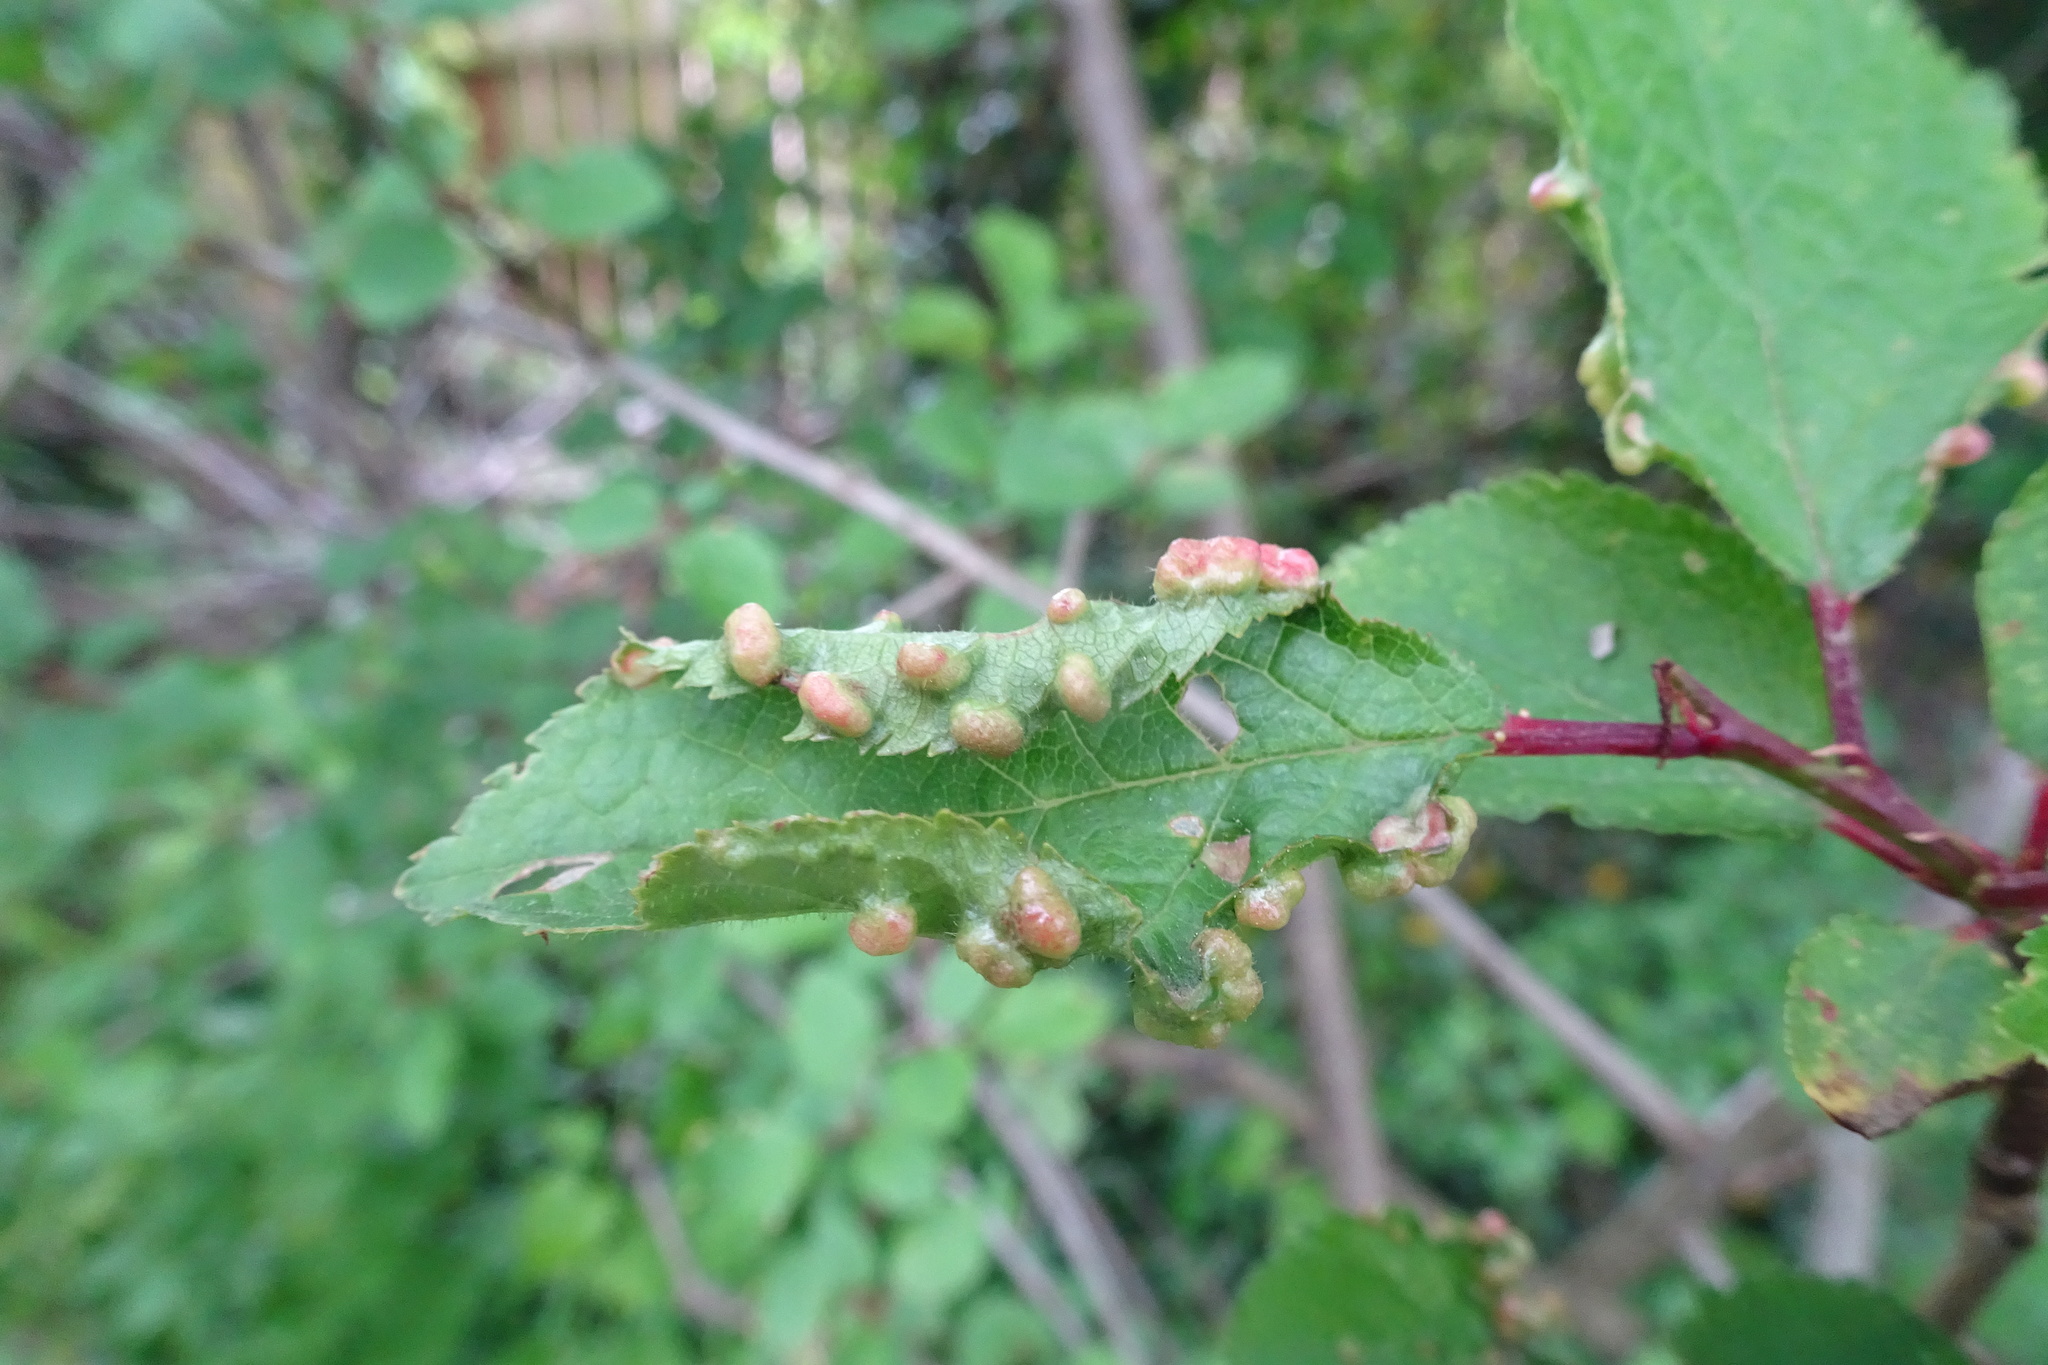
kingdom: Animalia
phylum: Arthropoda
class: Arachnida
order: Trombidiformes
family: Eriophyidae
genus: Eriophyes
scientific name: Eriophyes similis
